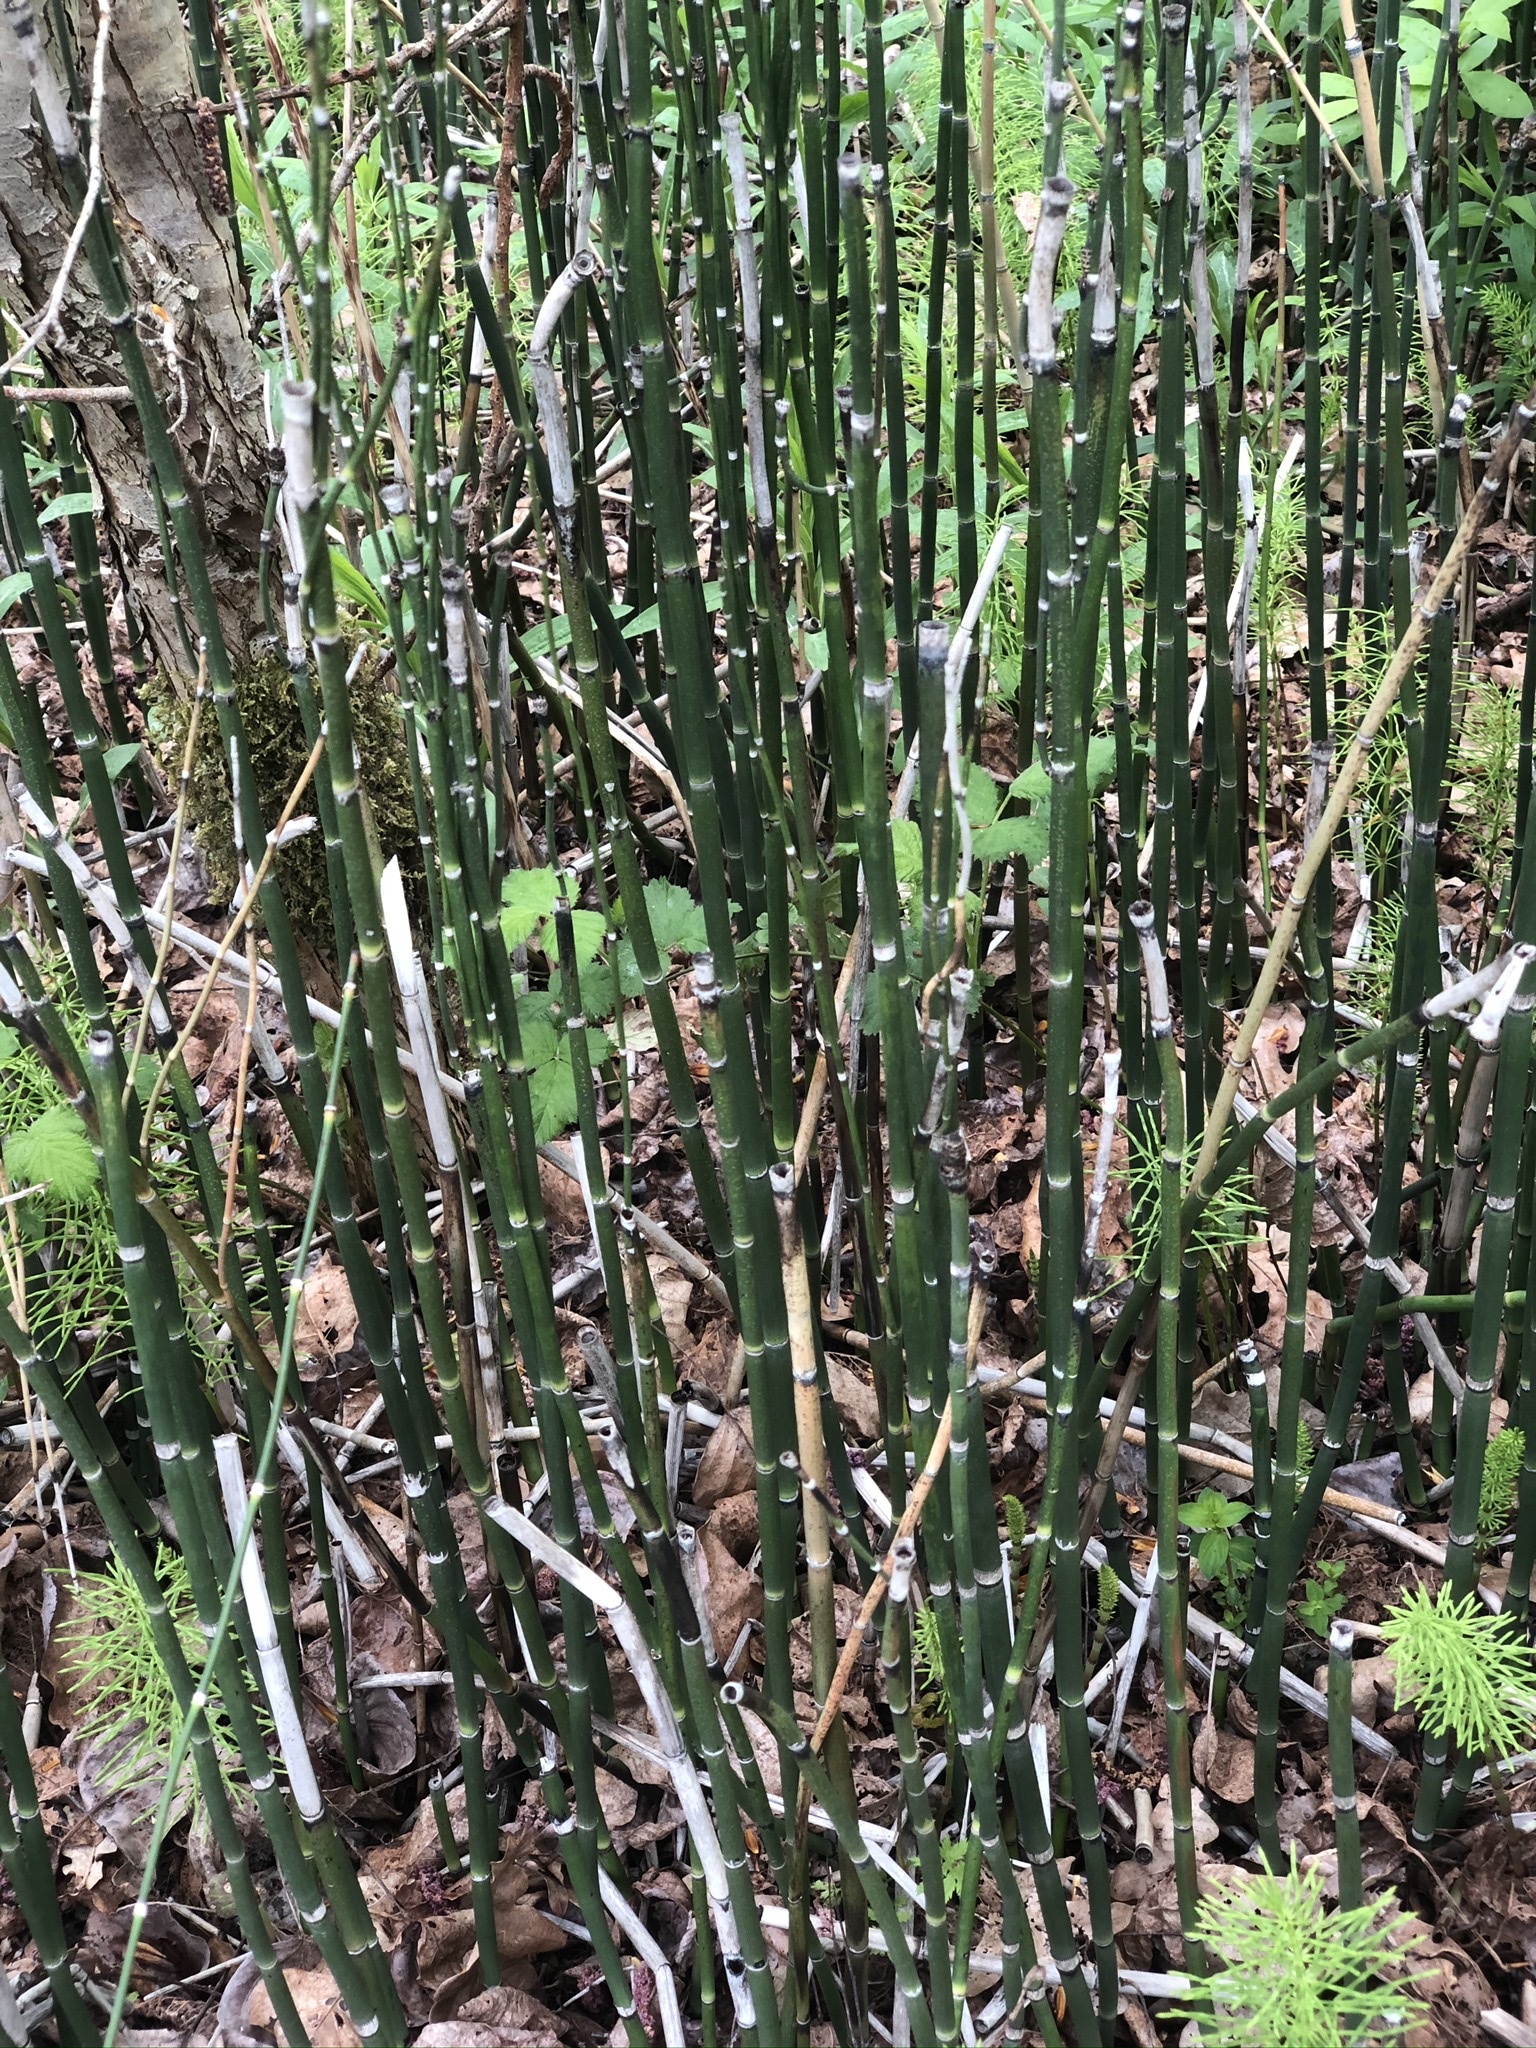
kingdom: Plantae
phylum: Tracheophyta
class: Polypodiopsida
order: Equisetales
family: Equisetaceae
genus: Equisetum
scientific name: Equisetum praealtum
